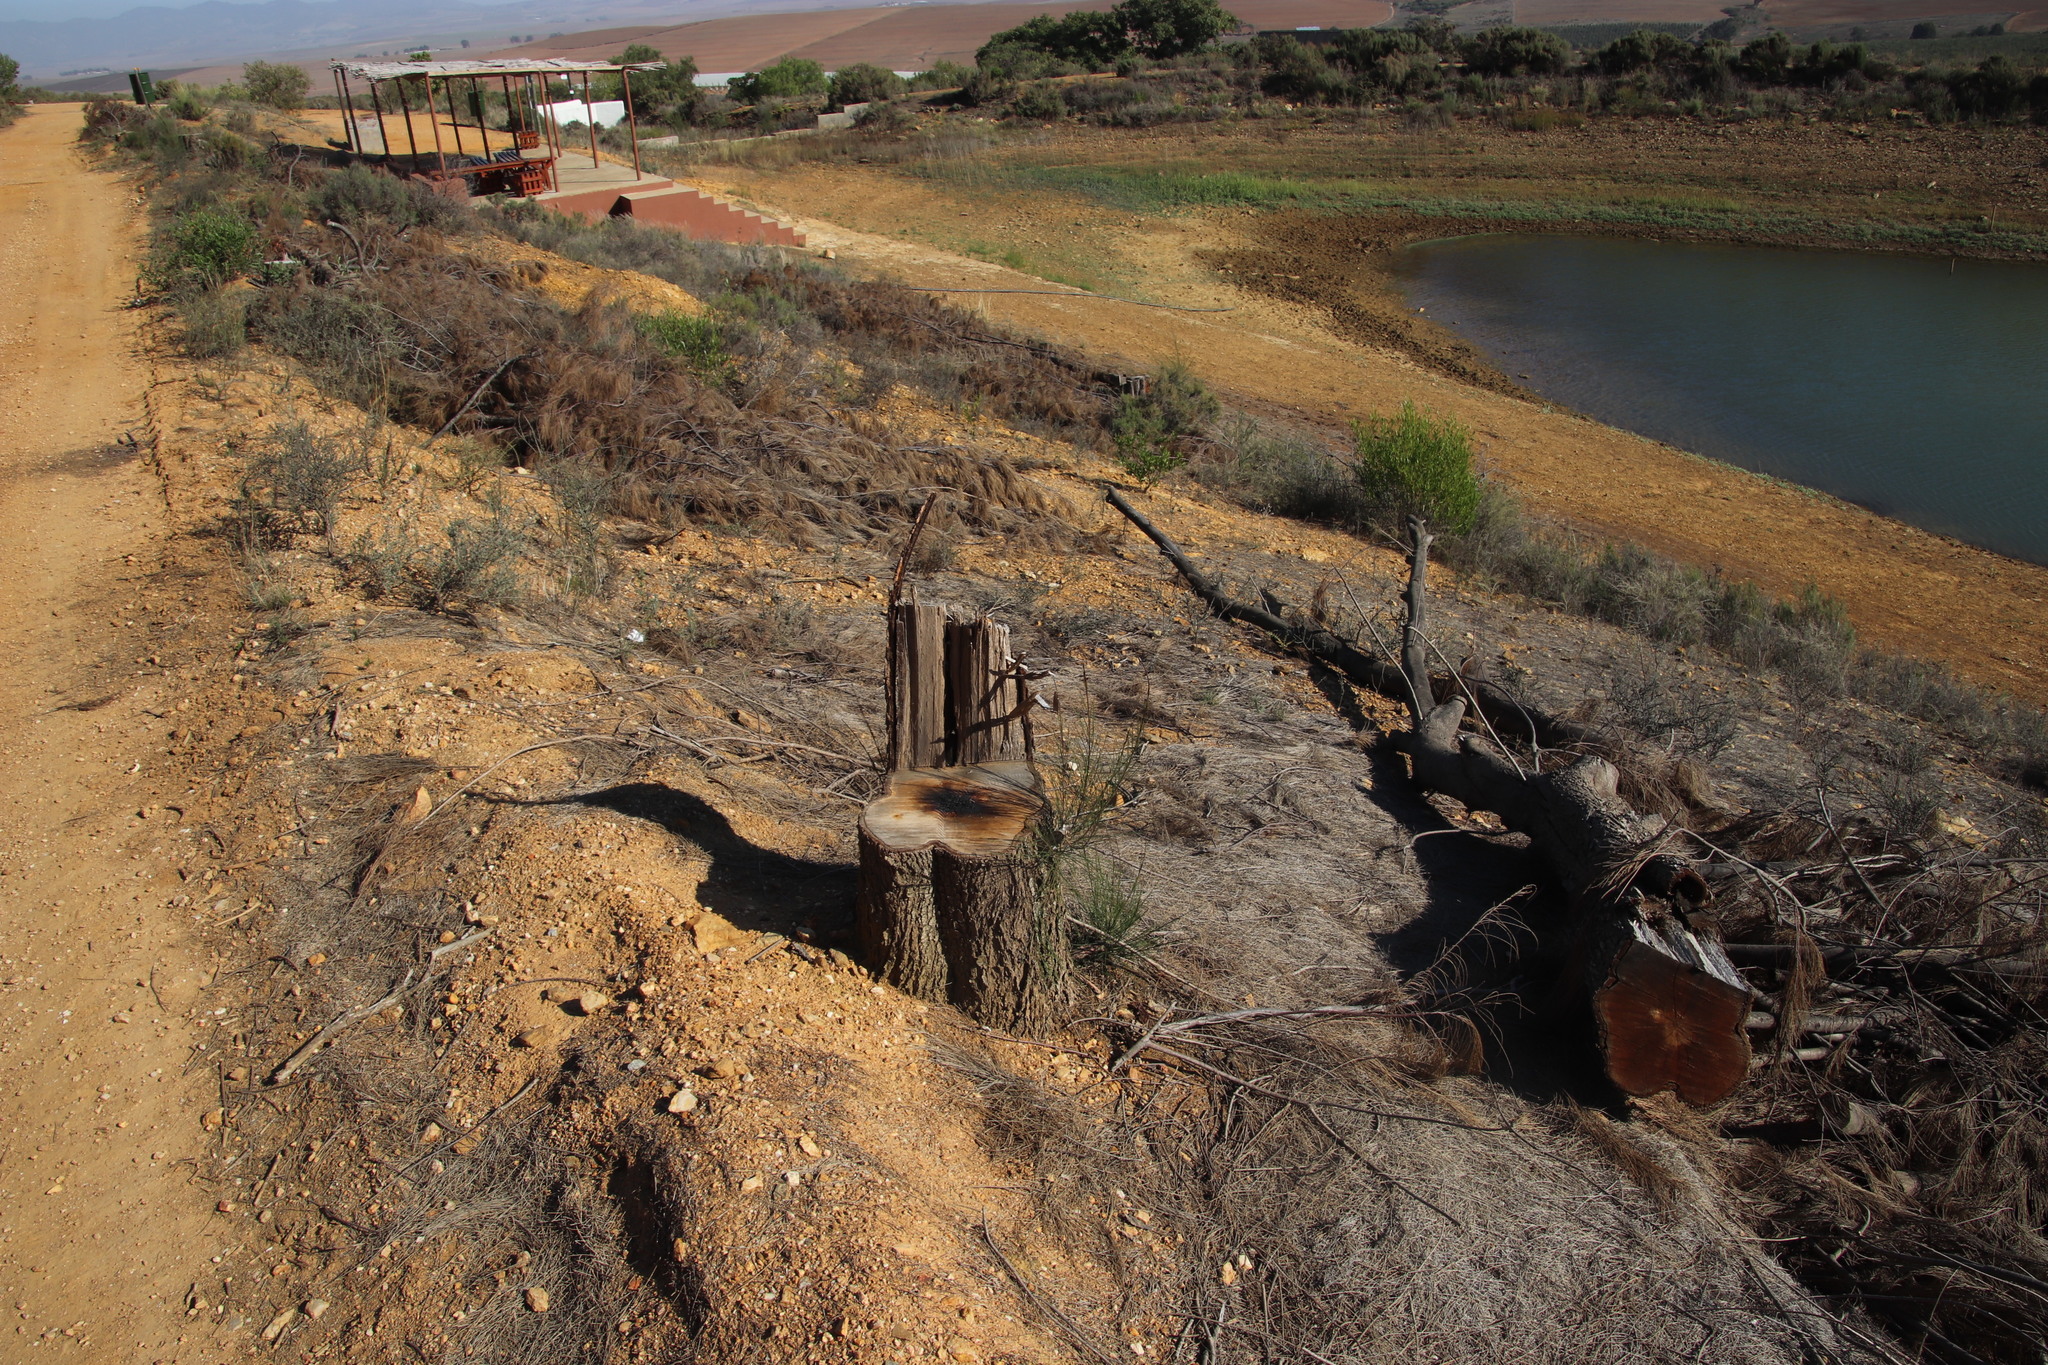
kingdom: Plantae
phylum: Tracheophyta
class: Magnoliopsida
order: Fagales
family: Casuarinaceae
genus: Casuarina
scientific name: Casuarina cunninghamiana
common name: River sheoak
